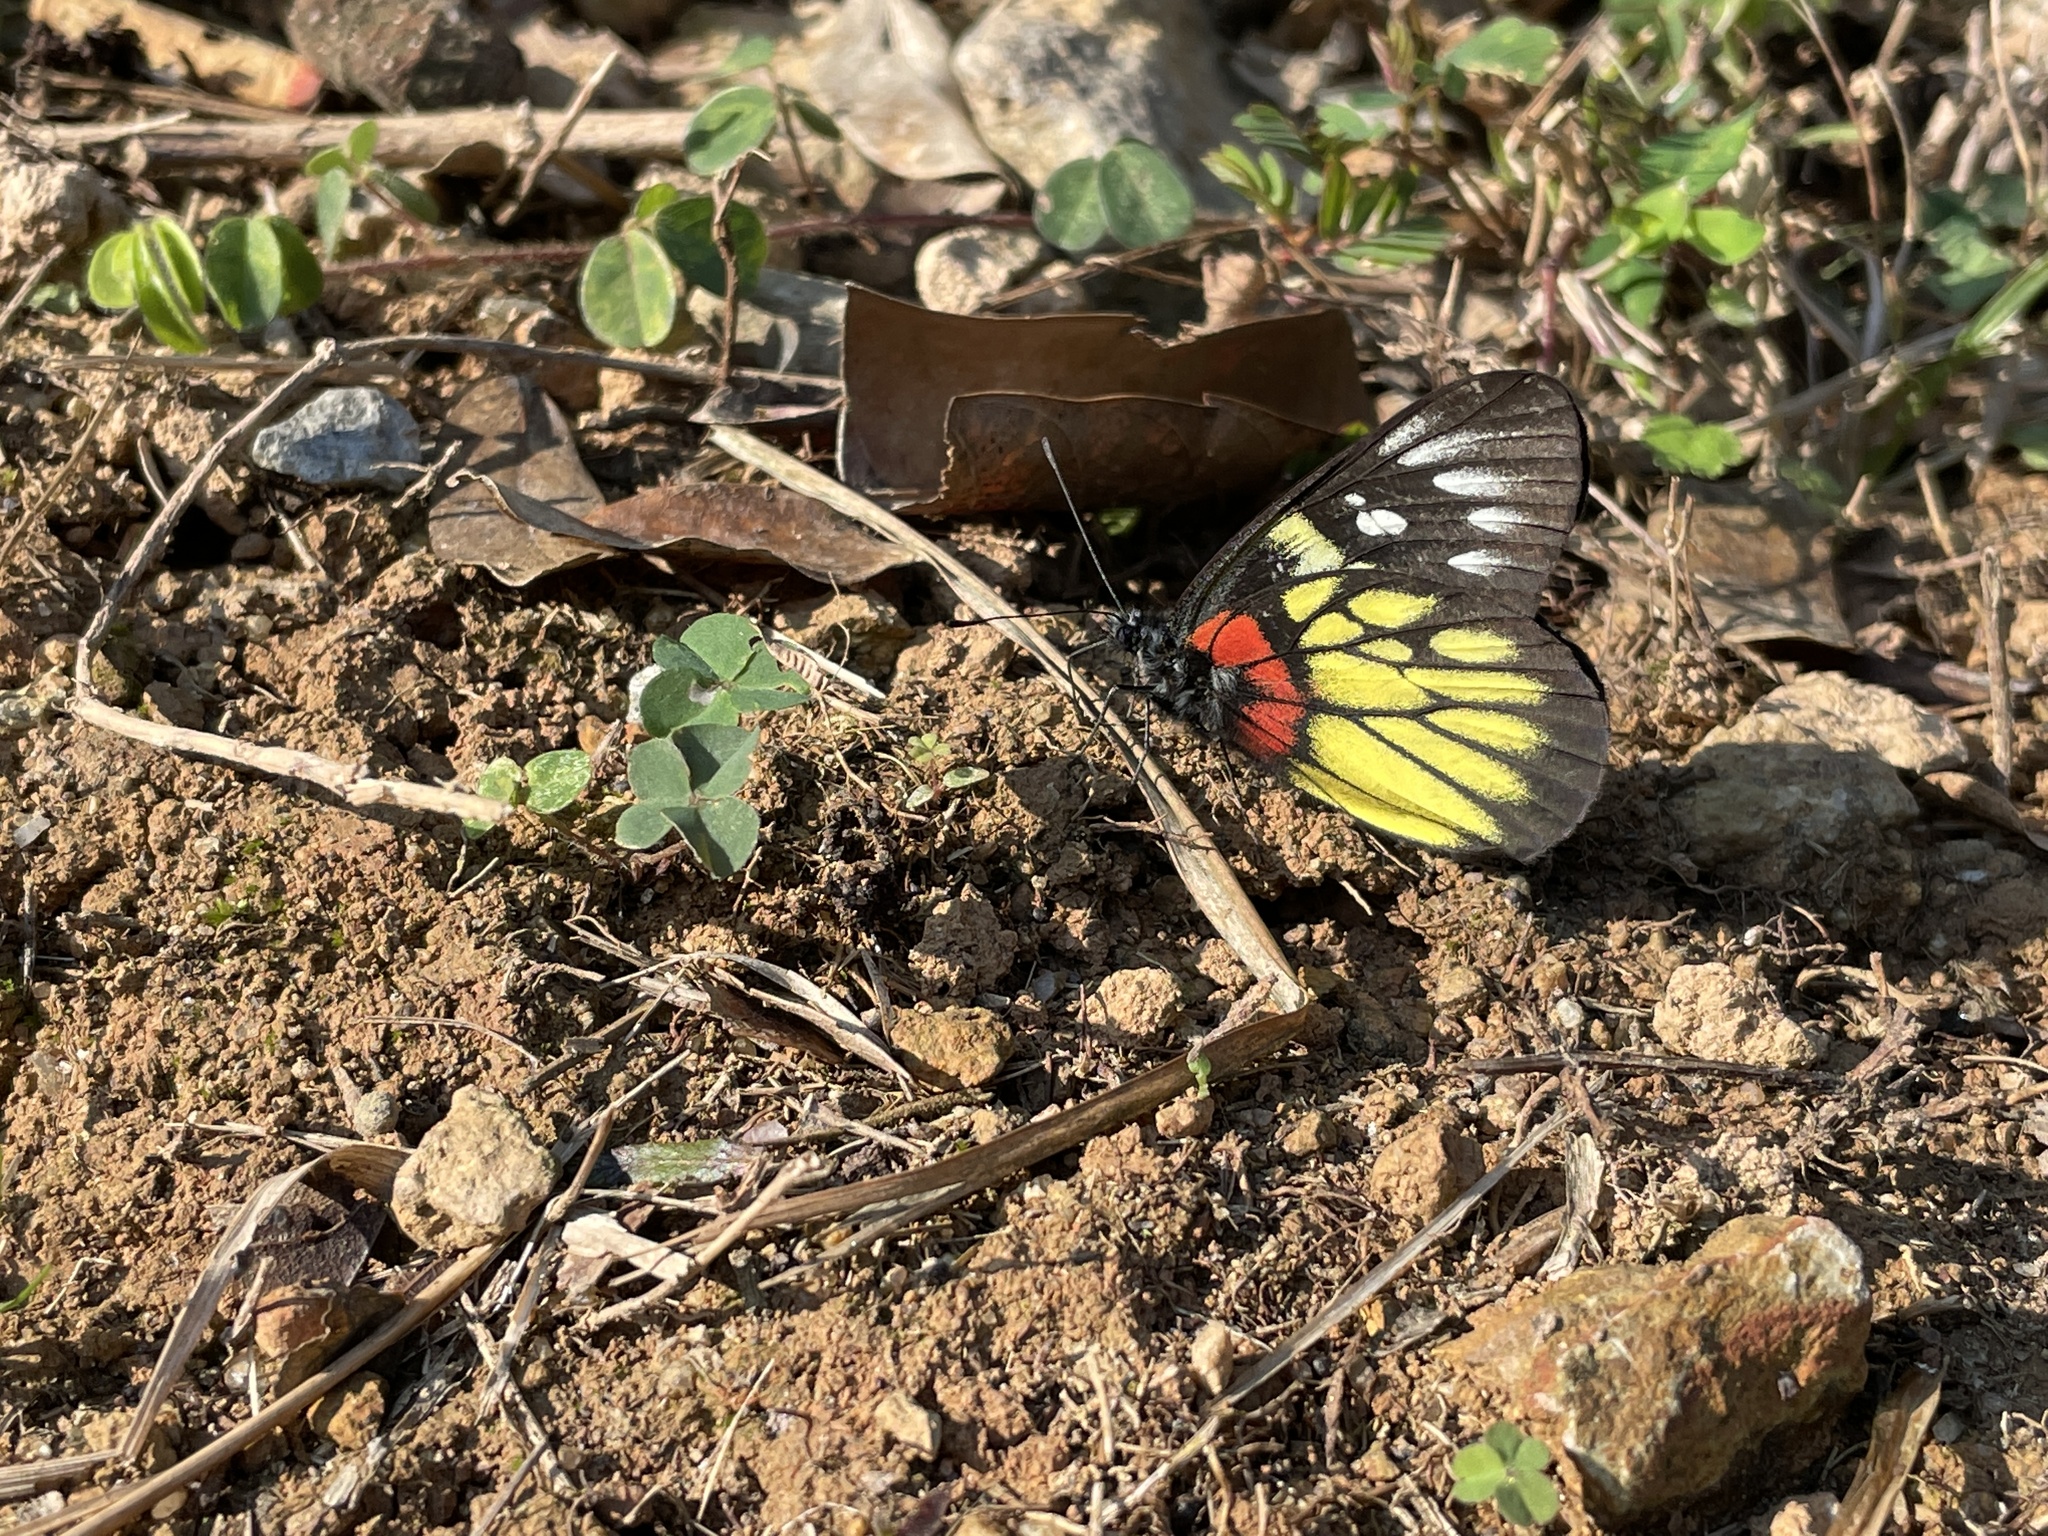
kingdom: Animalia
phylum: Arthropoda
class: Insecta
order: Lepidoptera
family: Pieridae
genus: Delias
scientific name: Delias pasithoe
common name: Red-base jezebel
